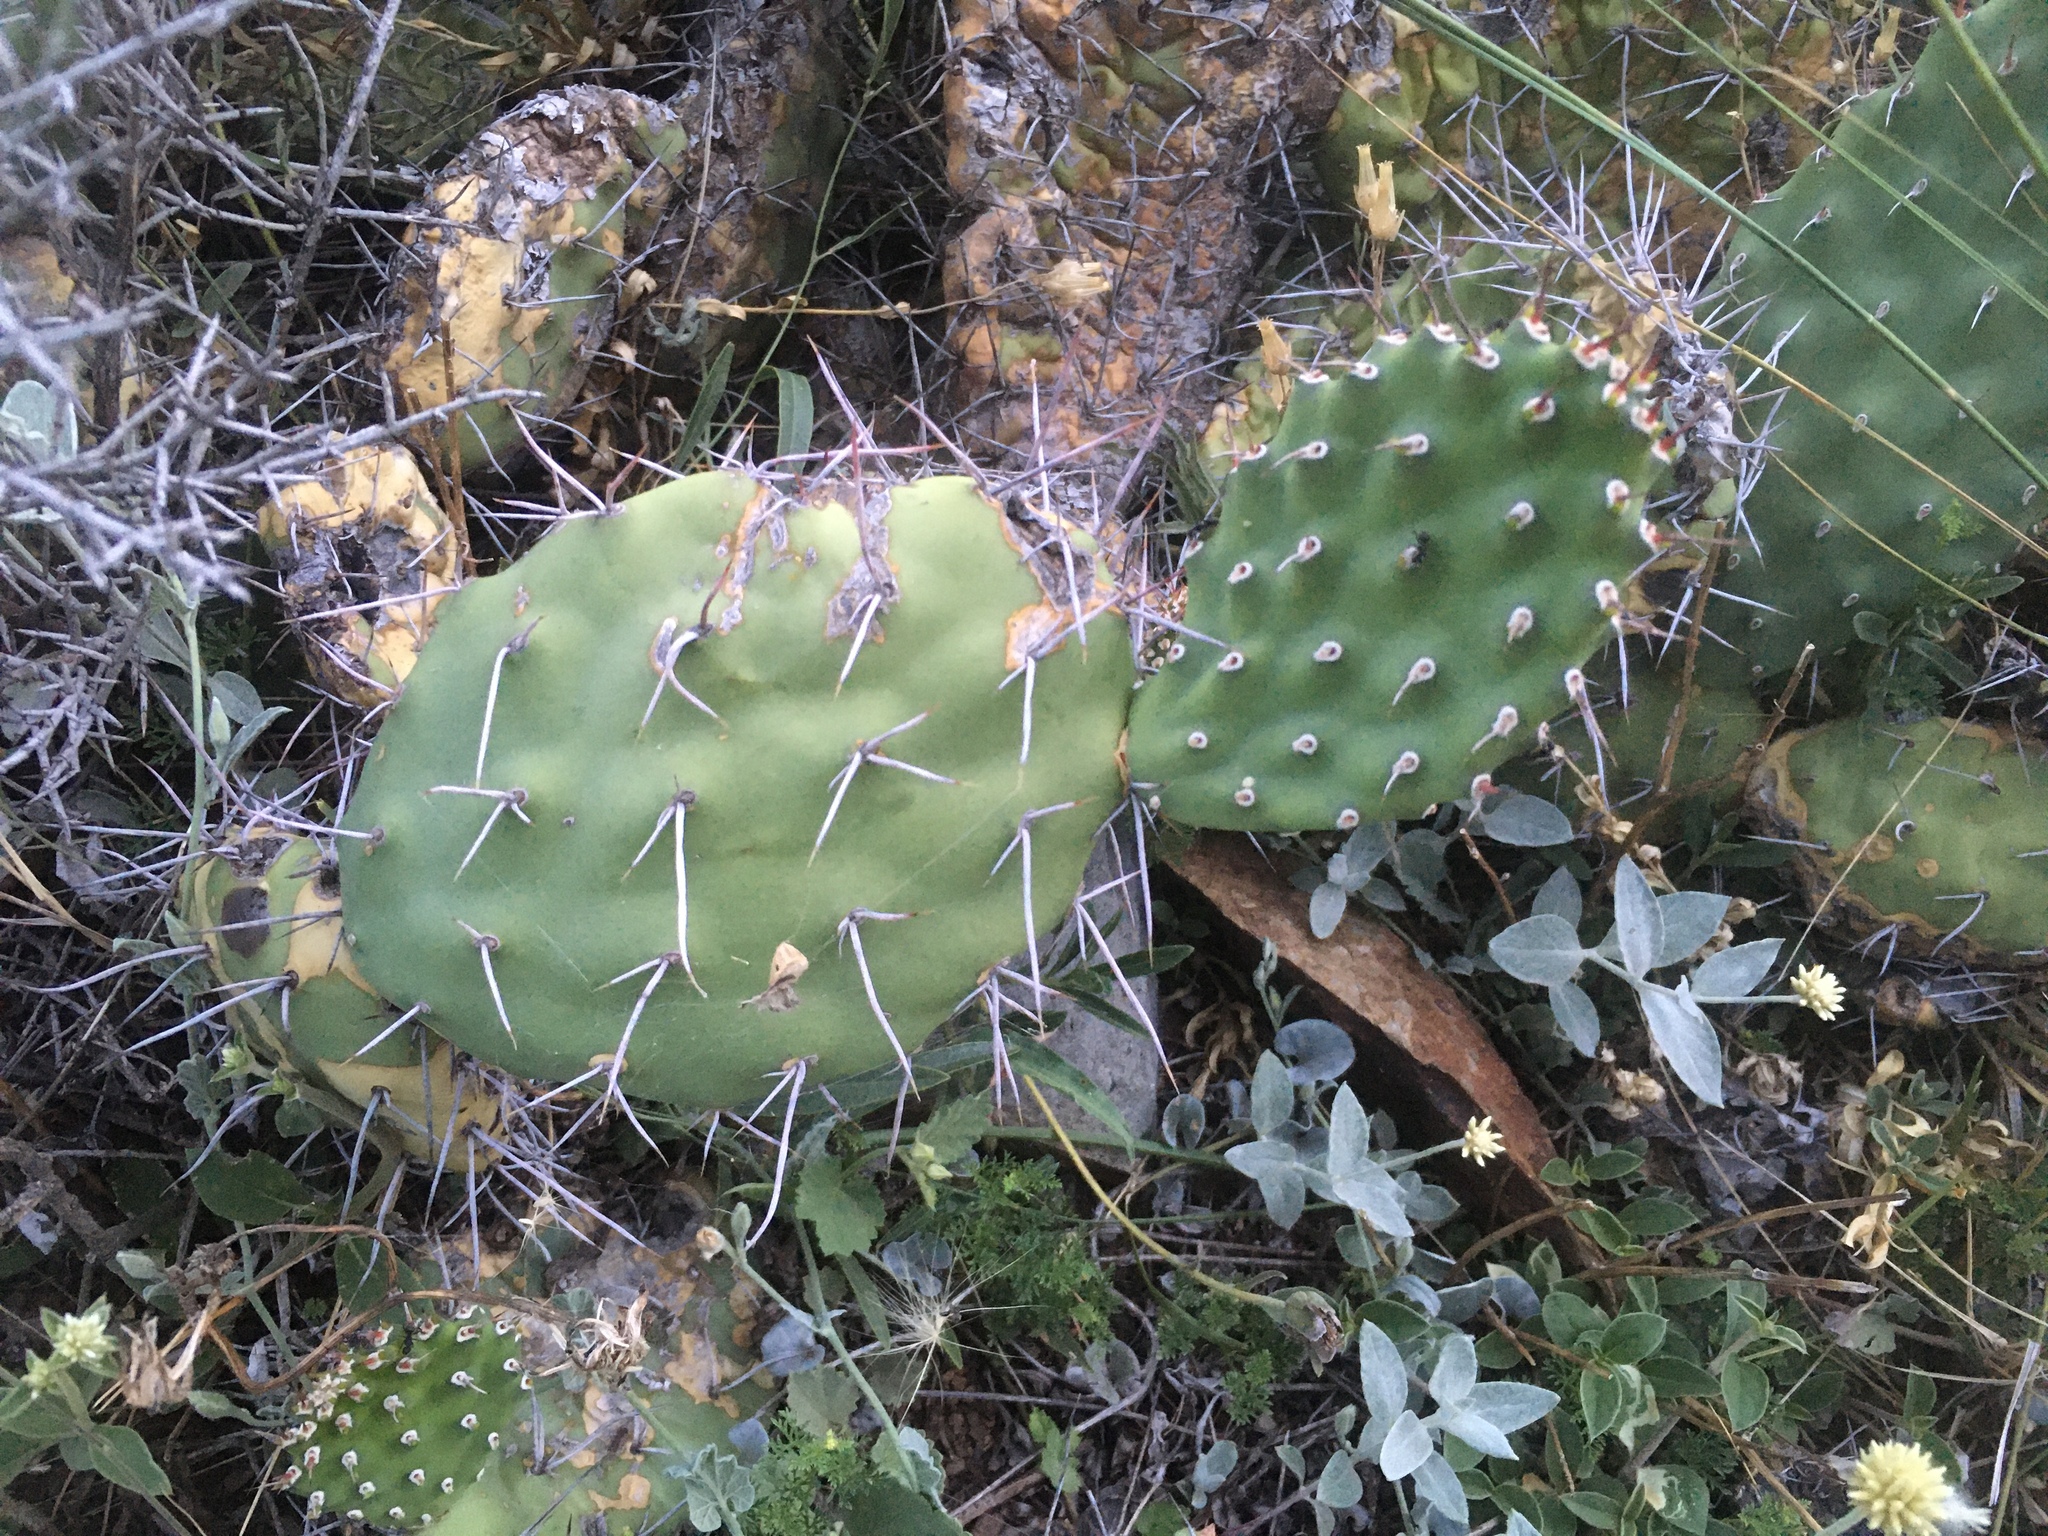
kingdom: Plantae
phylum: Tracheophyta
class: Magnoliopsida
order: Caryophyllales
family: Cactaceae
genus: Opuntia
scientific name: Opuntia sulphurea
